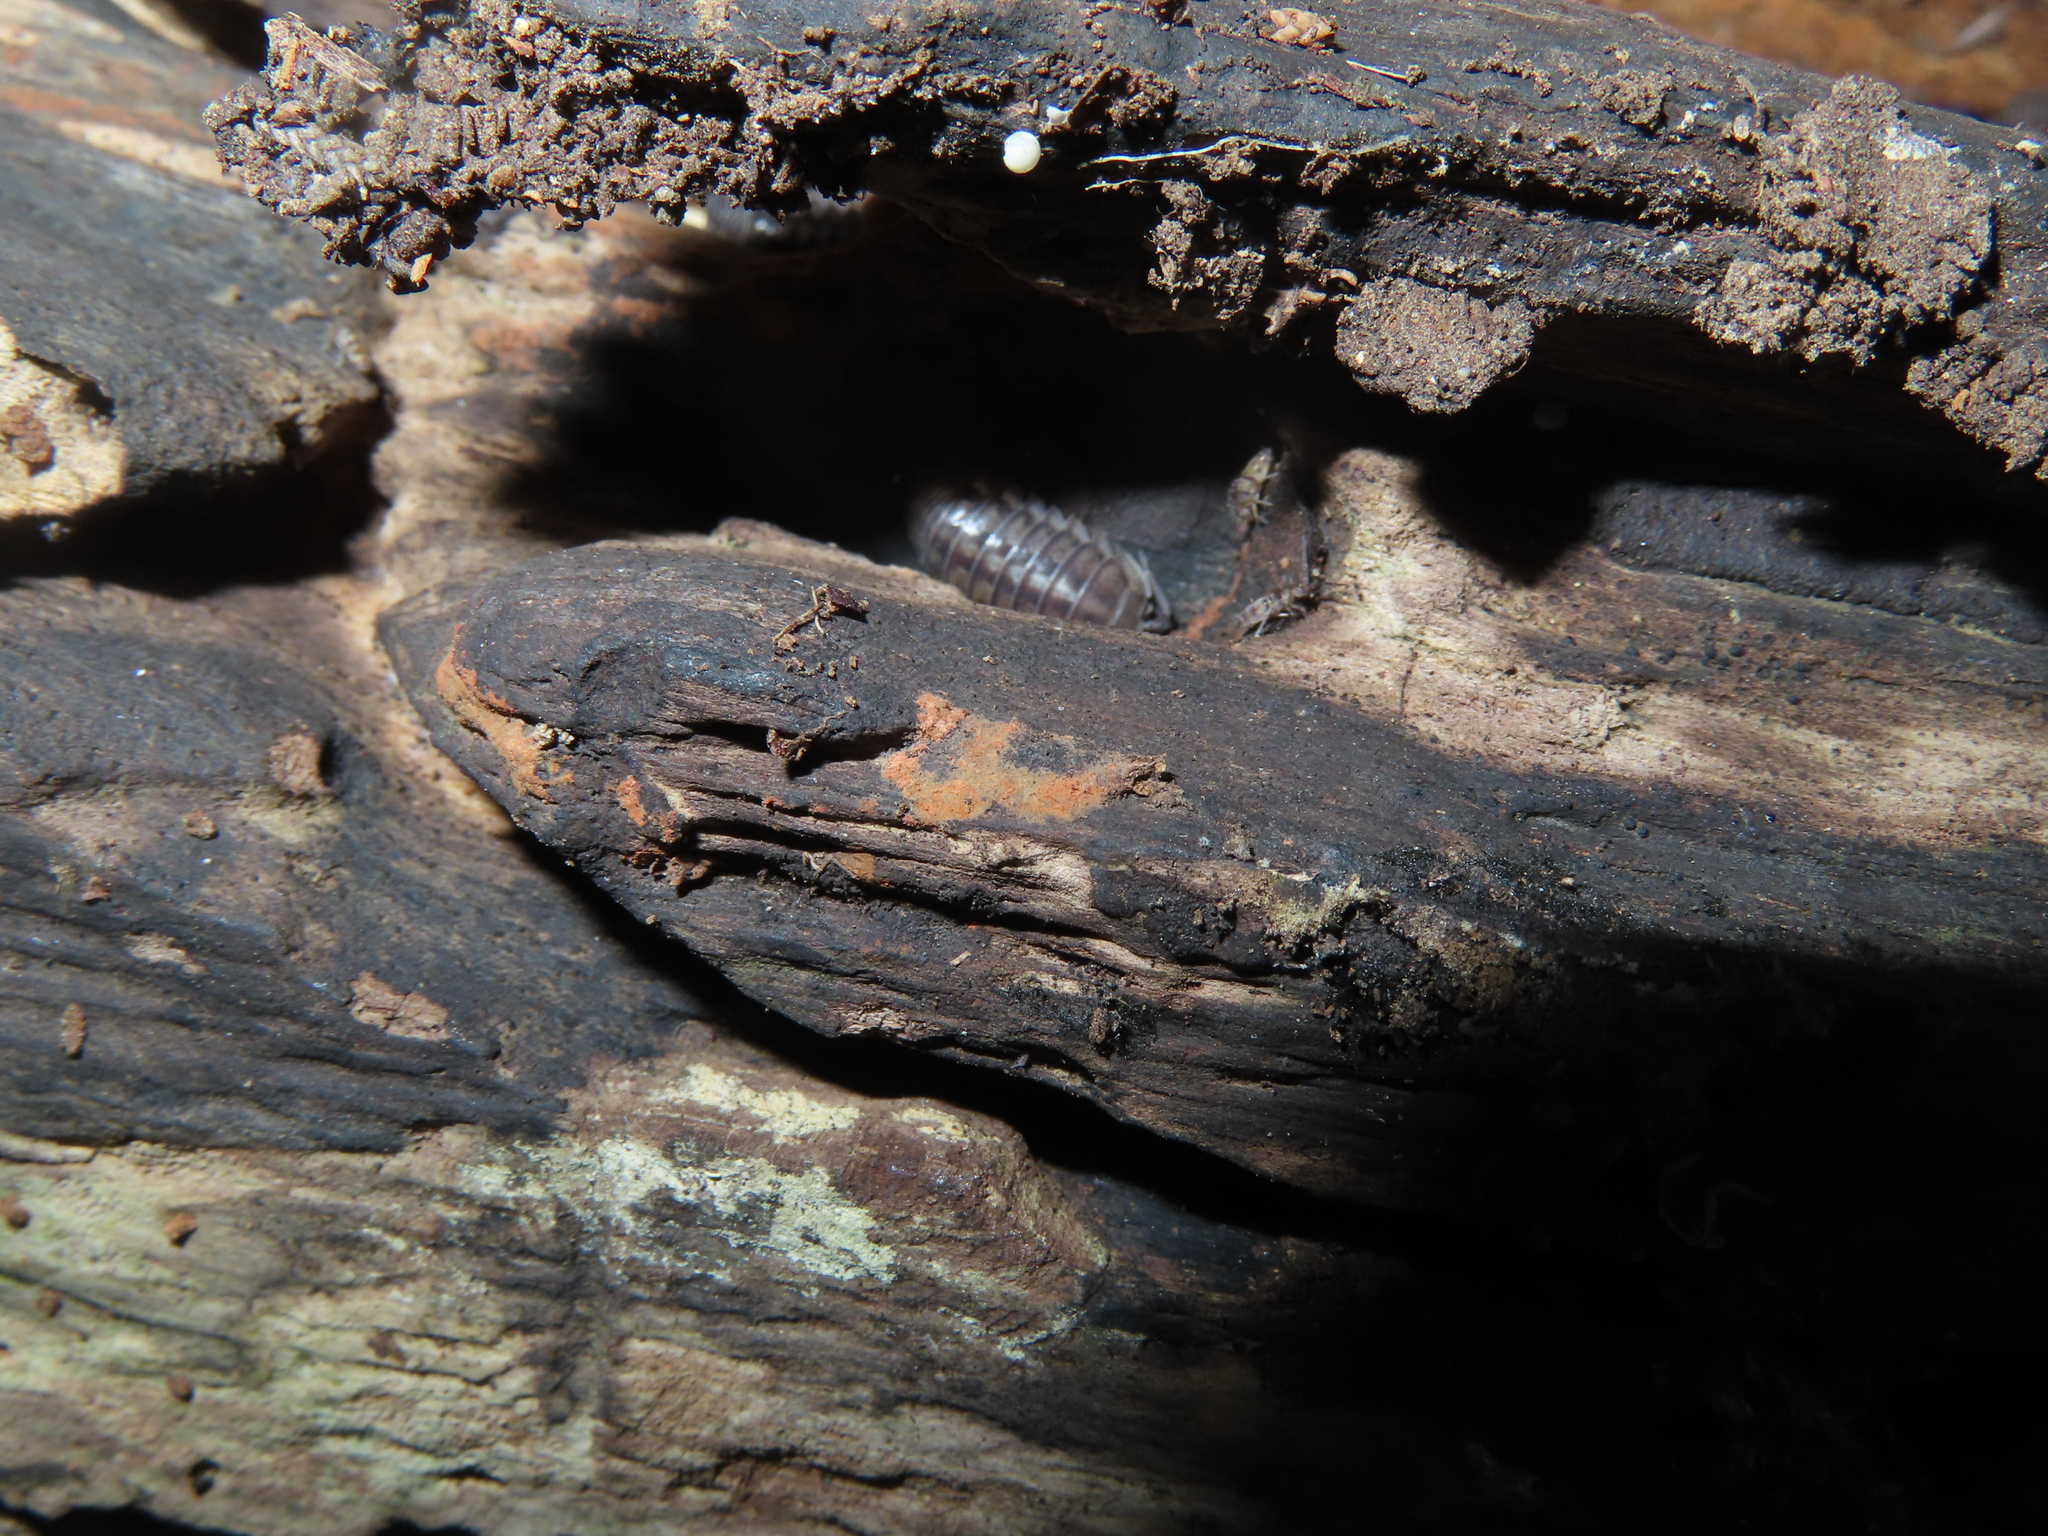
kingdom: Animalia
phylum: Arthropoda
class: Malacostraca
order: Isopoda
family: Armadillidiidae
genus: Armadillidium
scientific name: Armadillidium nasatum
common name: Isopod
